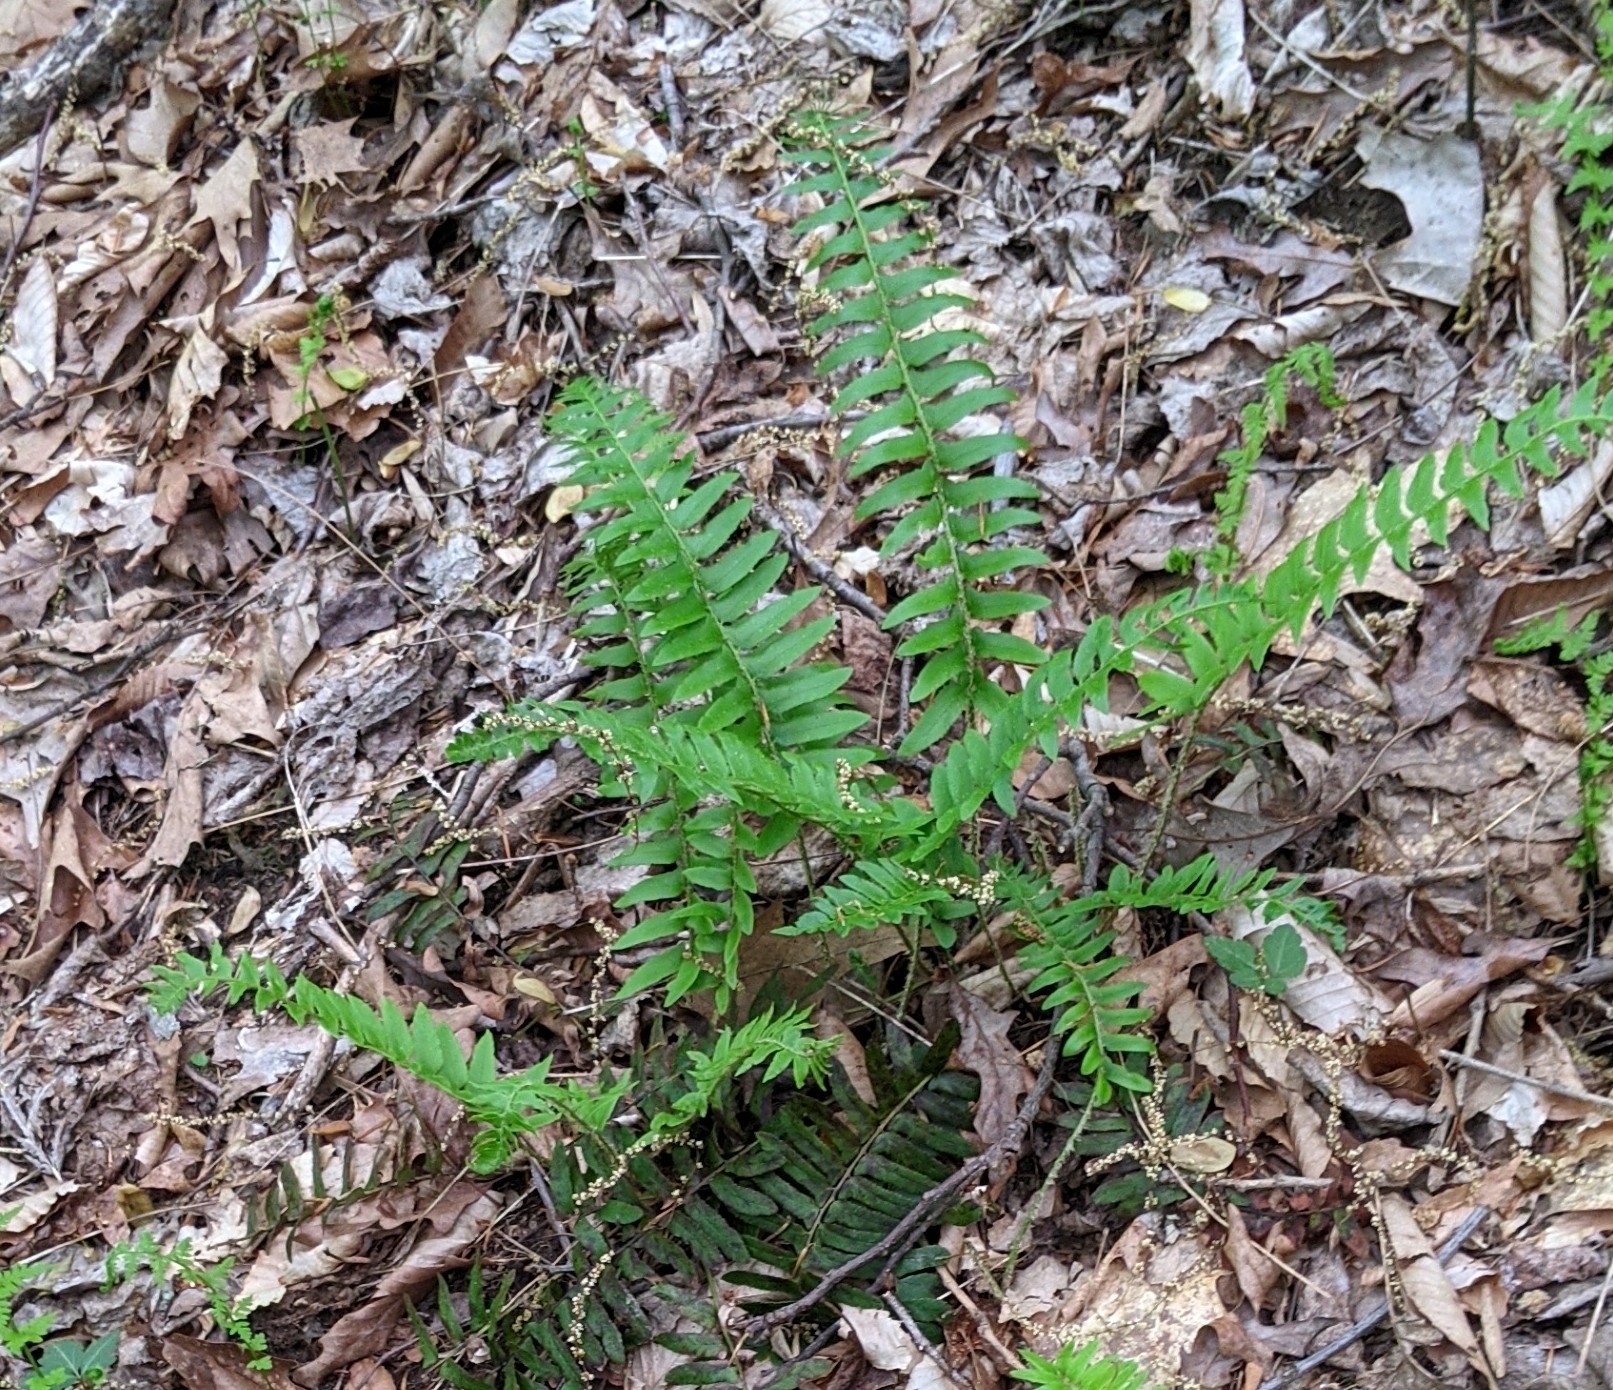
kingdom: Plantae
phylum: Tracheophyta
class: Polypodiopsida
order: Polypodiales
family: Dryopteridaceae
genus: Polystichum
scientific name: Polystichum acrostichoides
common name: Christmas fern
